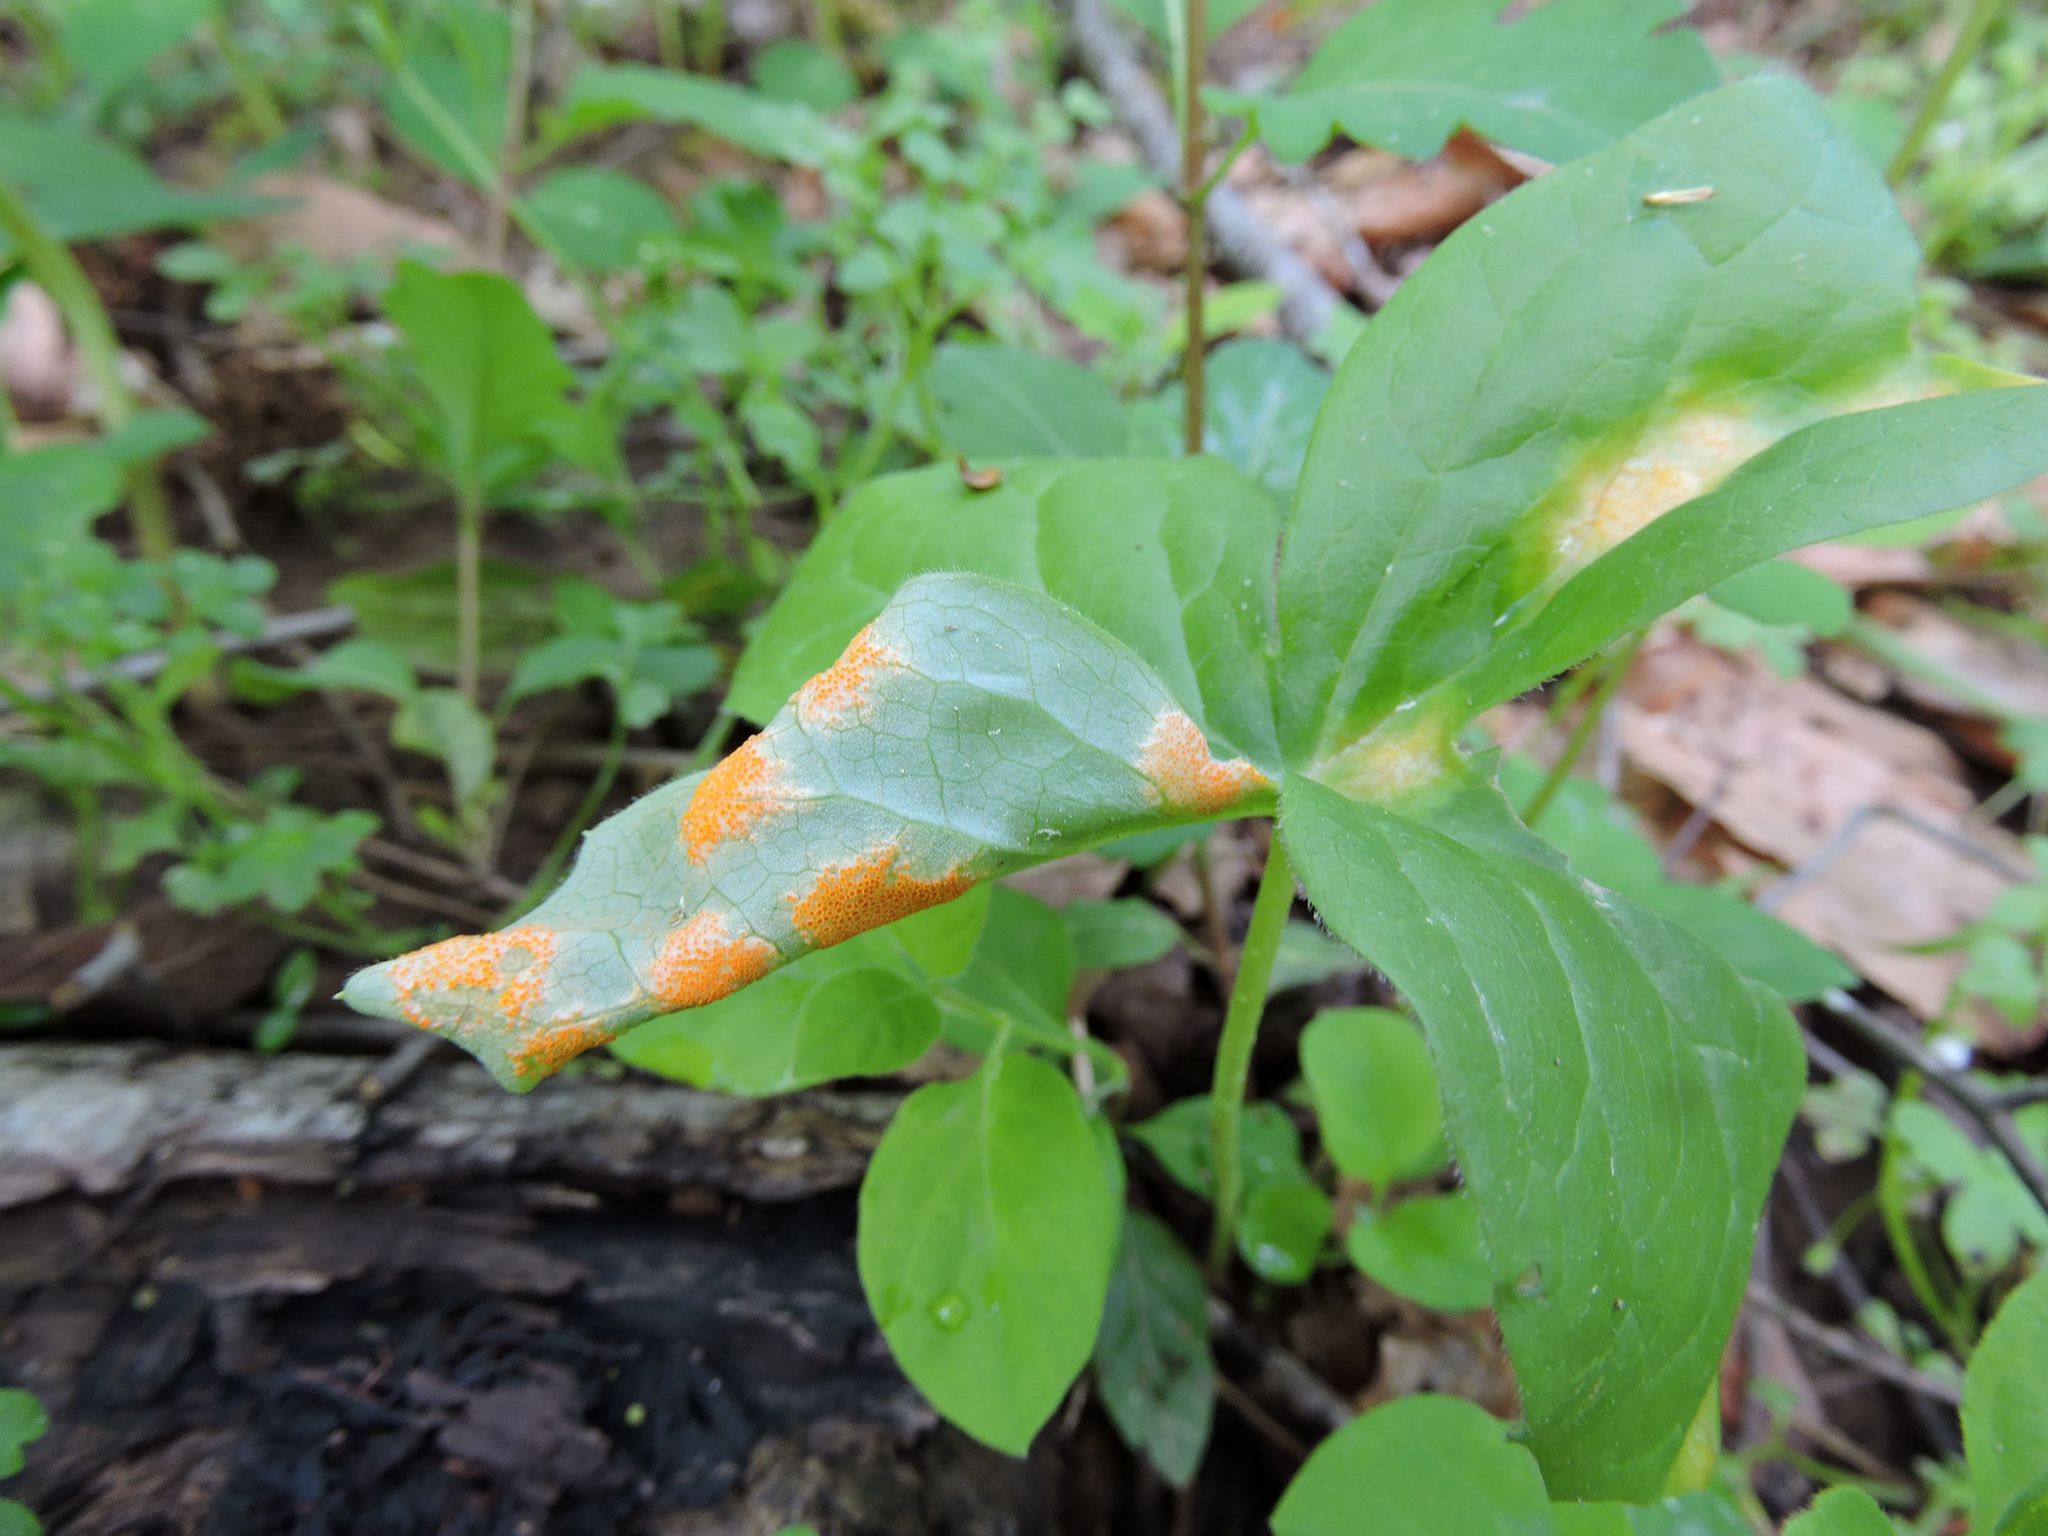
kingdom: Fungi
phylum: Basidiomycota
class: Pucciniomycetes
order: Pucciniales
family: Pucciniaceae
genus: Puccinia
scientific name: Puccinia podophylli
